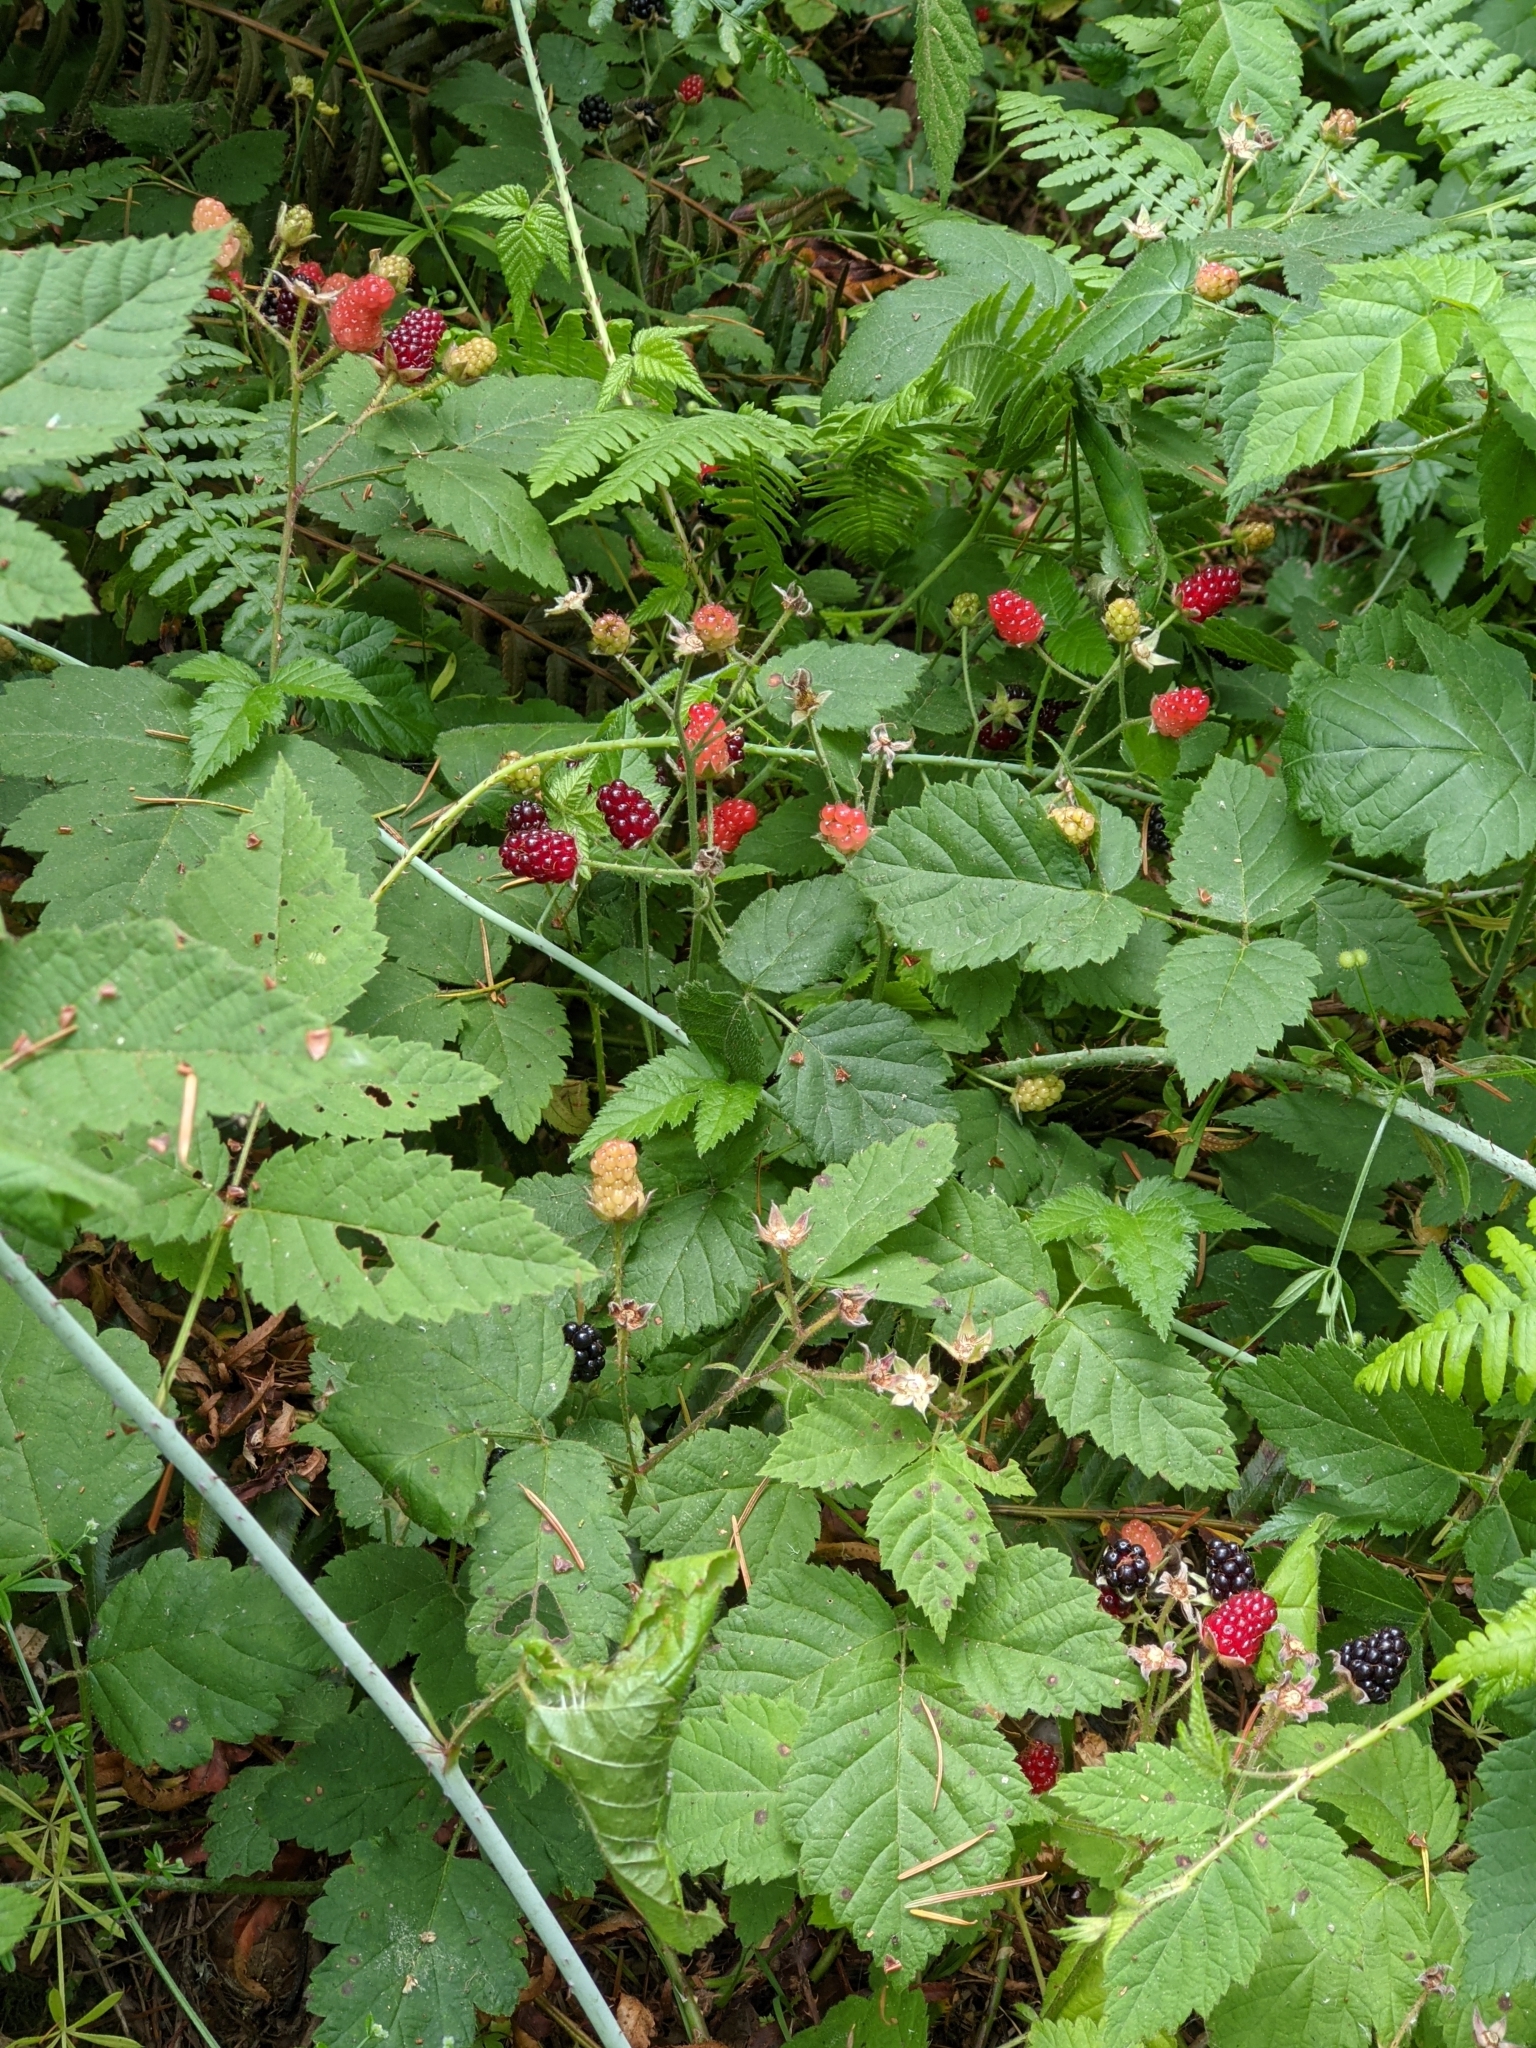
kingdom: Plantae
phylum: Tracheophyta
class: Magnoliopsida
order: Rosales
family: Rosaceae
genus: Rubus
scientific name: Rubus ursinus
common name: Pacific blackberry
